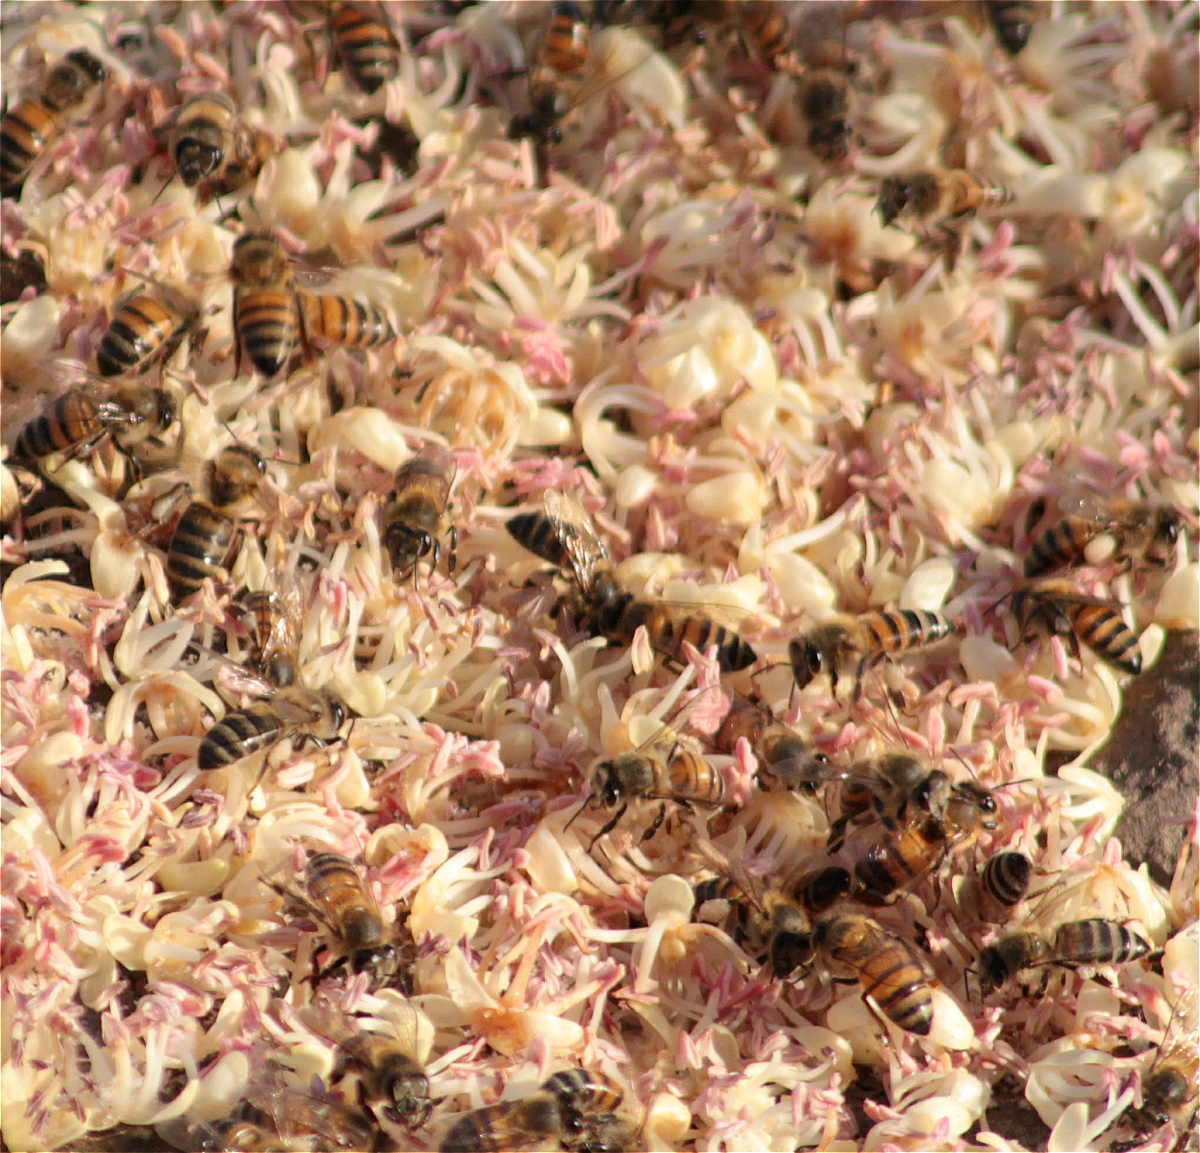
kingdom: Animalia
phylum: Arthropoda
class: Insecta
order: Hymenoptera
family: Apidae
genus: Apis
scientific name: Apis mellifera
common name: Honey bee
